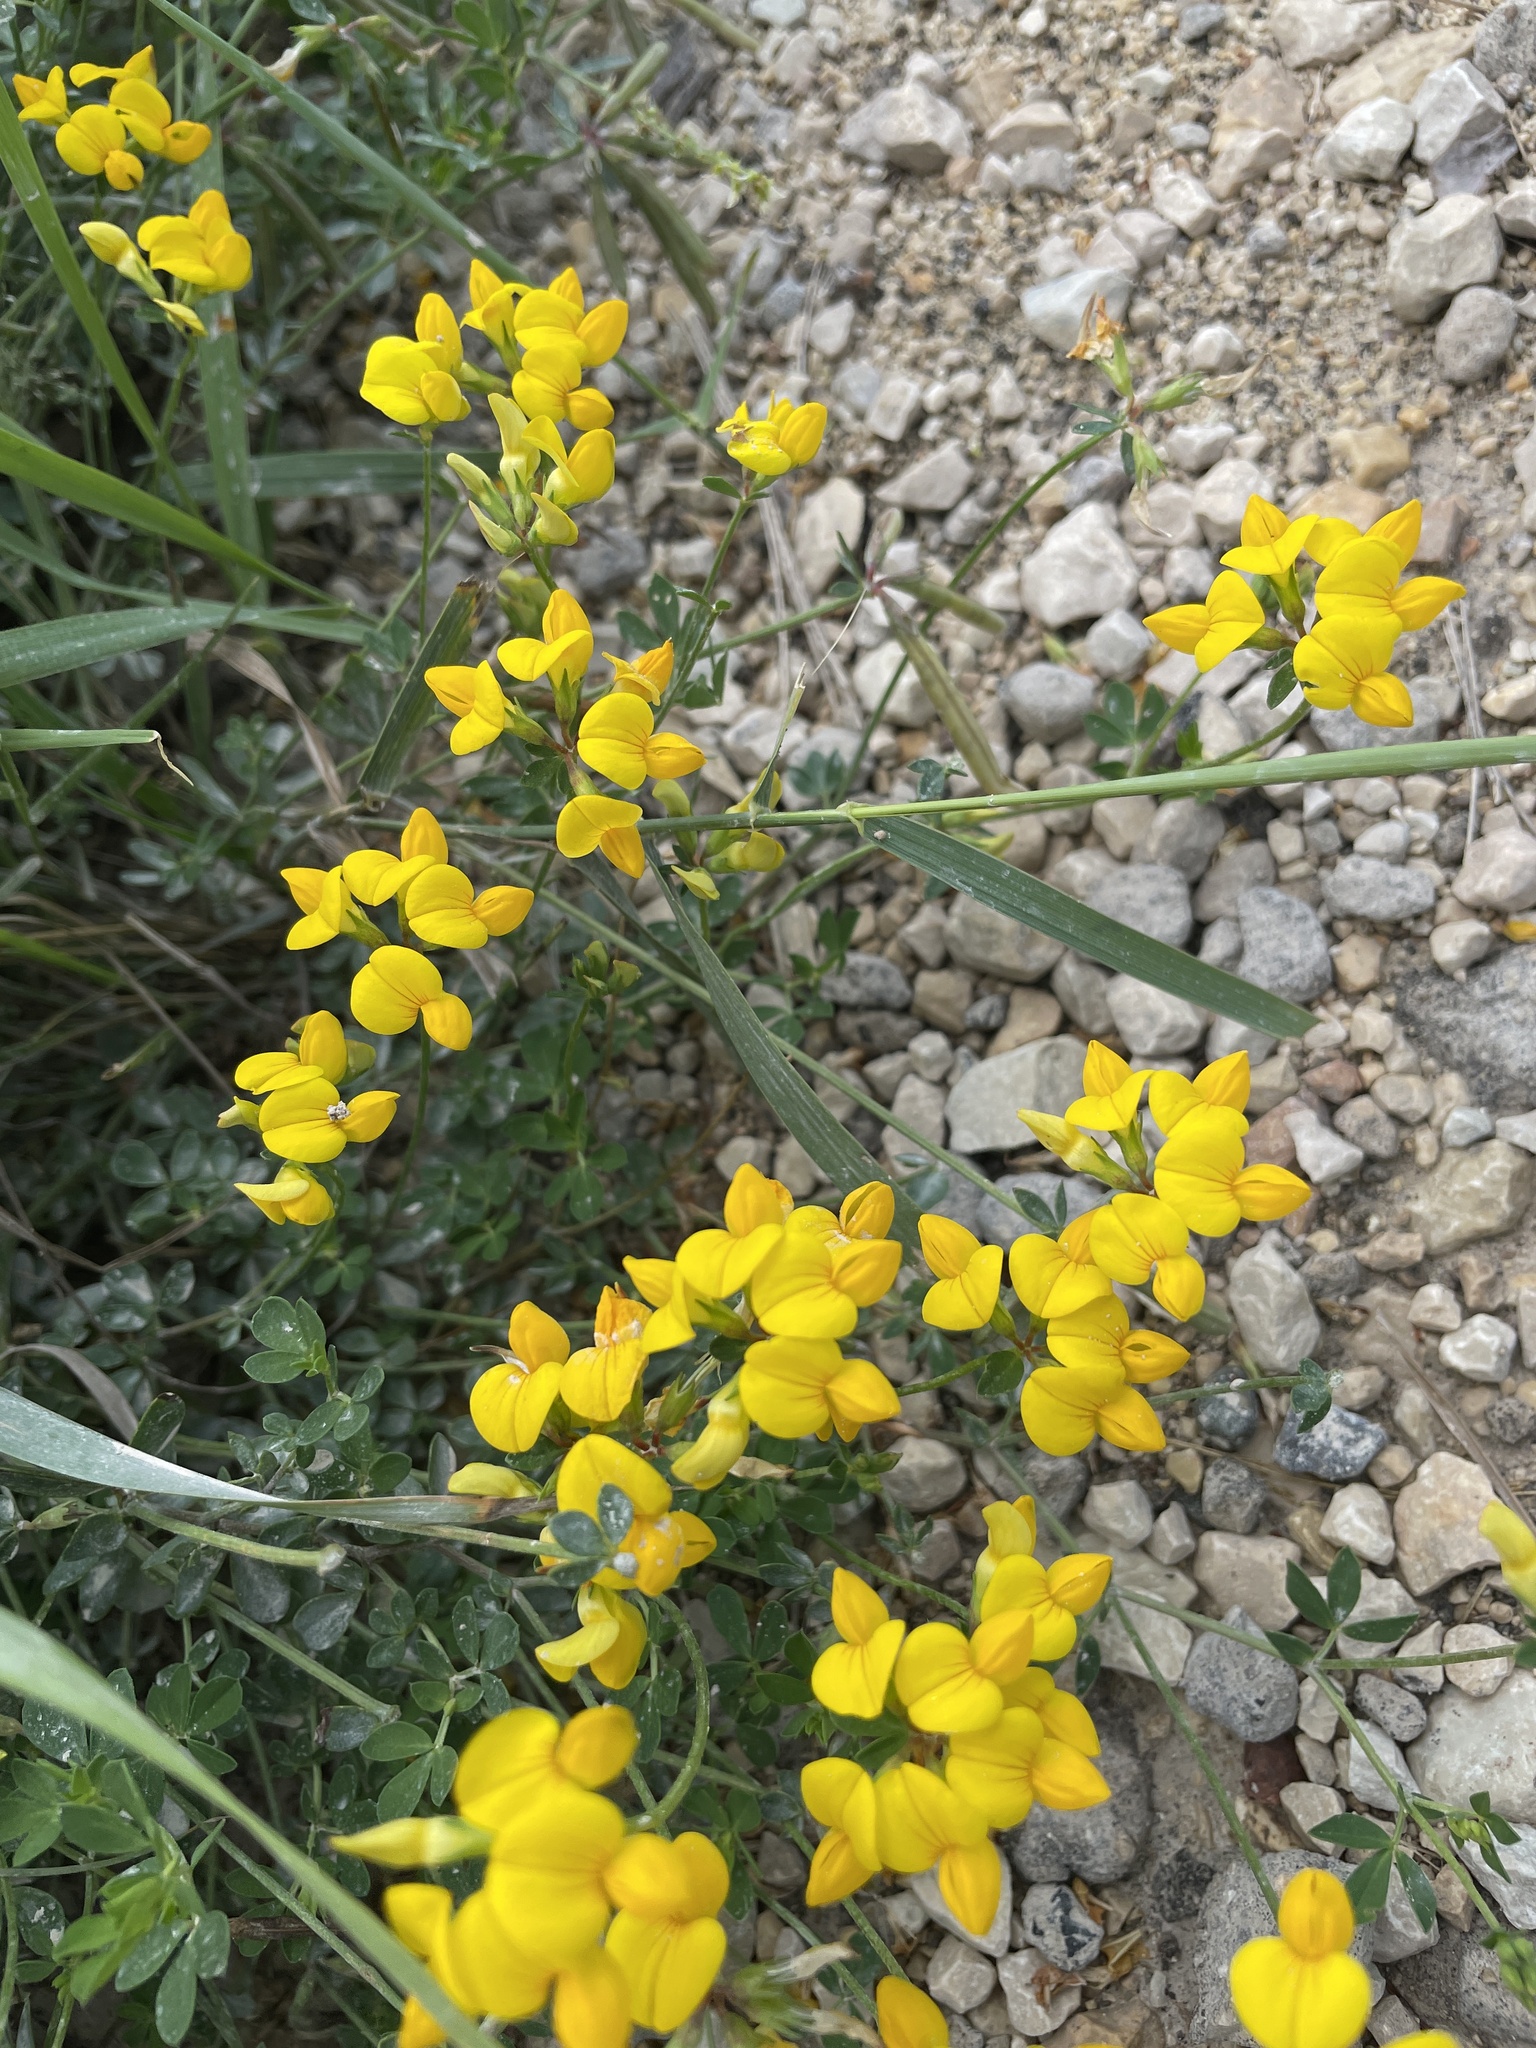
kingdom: Plantae
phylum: Tracheophyta
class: Magnoliopsida
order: Fabales
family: Fabaceae
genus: Lotus
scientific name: Lotus corniculatus
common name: Common bird's-foot-trefoil
